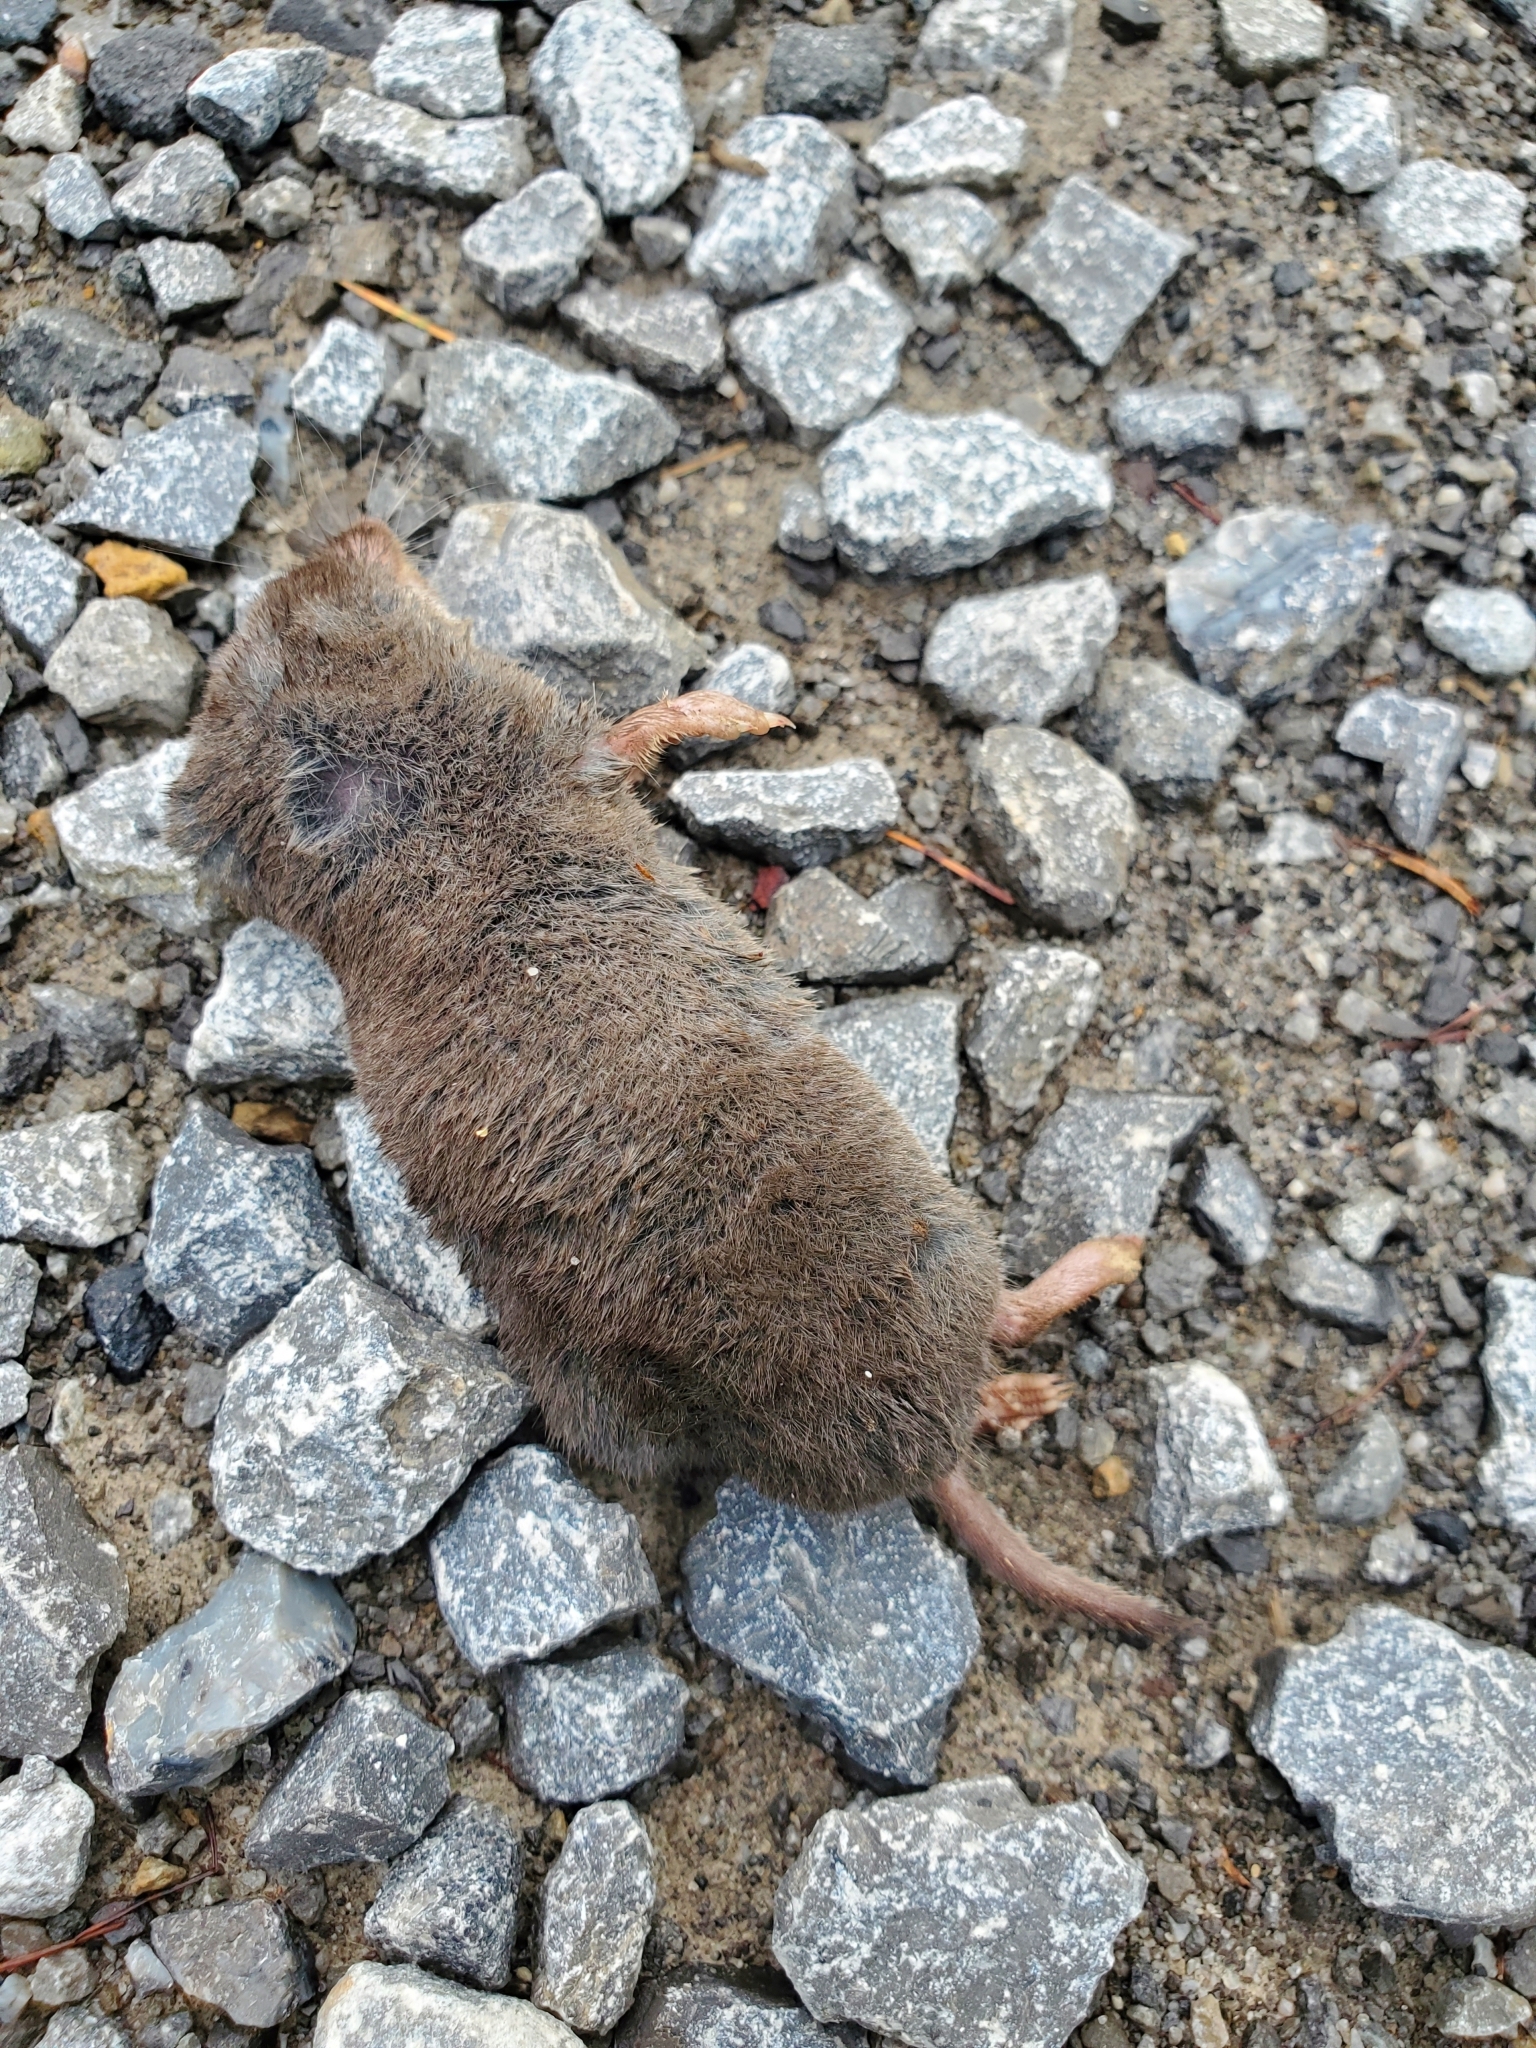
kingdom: Animalia
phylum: Chordata
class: Mammalia
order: Soricomorpha
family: Soricidae
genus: Blarina
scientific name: Blarina brevicauda
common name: Northern short-tailed shrew
